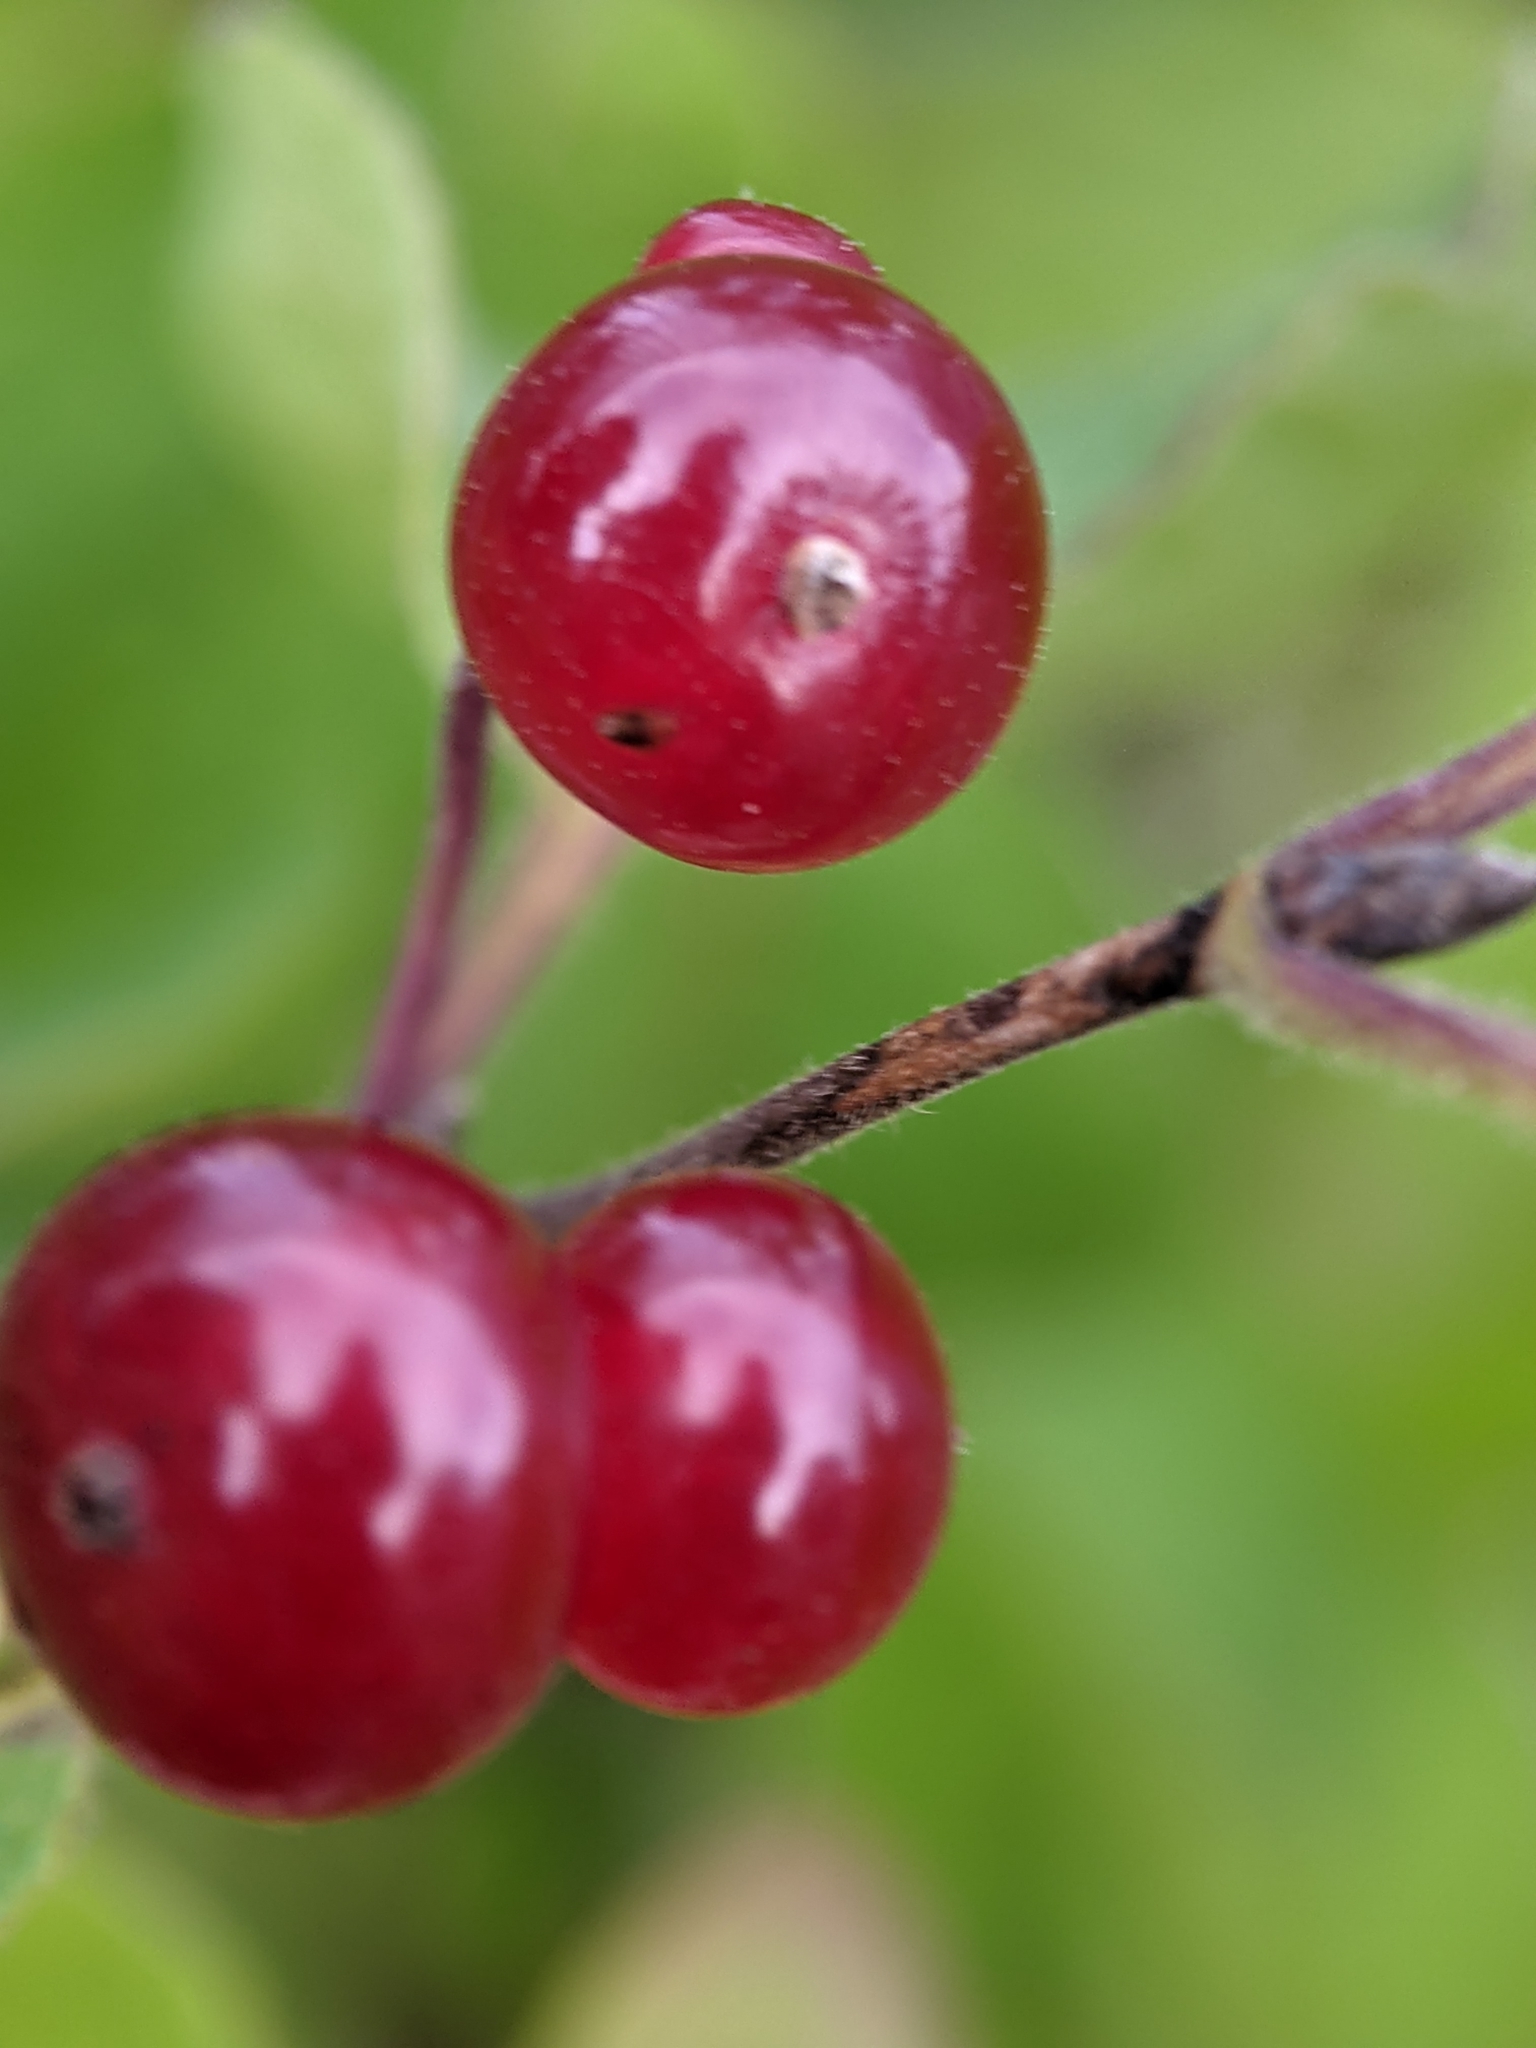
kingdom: Plantae
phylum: Tracheophyta
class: Magnoliopsida
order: Dipsacales
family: Caprifoliaceae
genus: Lonicera
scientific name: Lonicera xylosteum
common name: Fly honeysuckle
